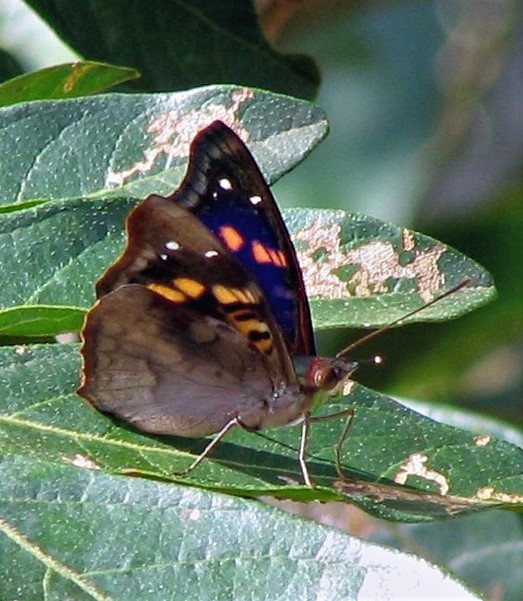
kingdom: Animalia
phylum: Arthropoda
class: Insecta
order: Lepidoptera
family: Nymphalidae
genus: Doxocopa
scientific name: Doxocopa agathina
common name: Agathina emperor
